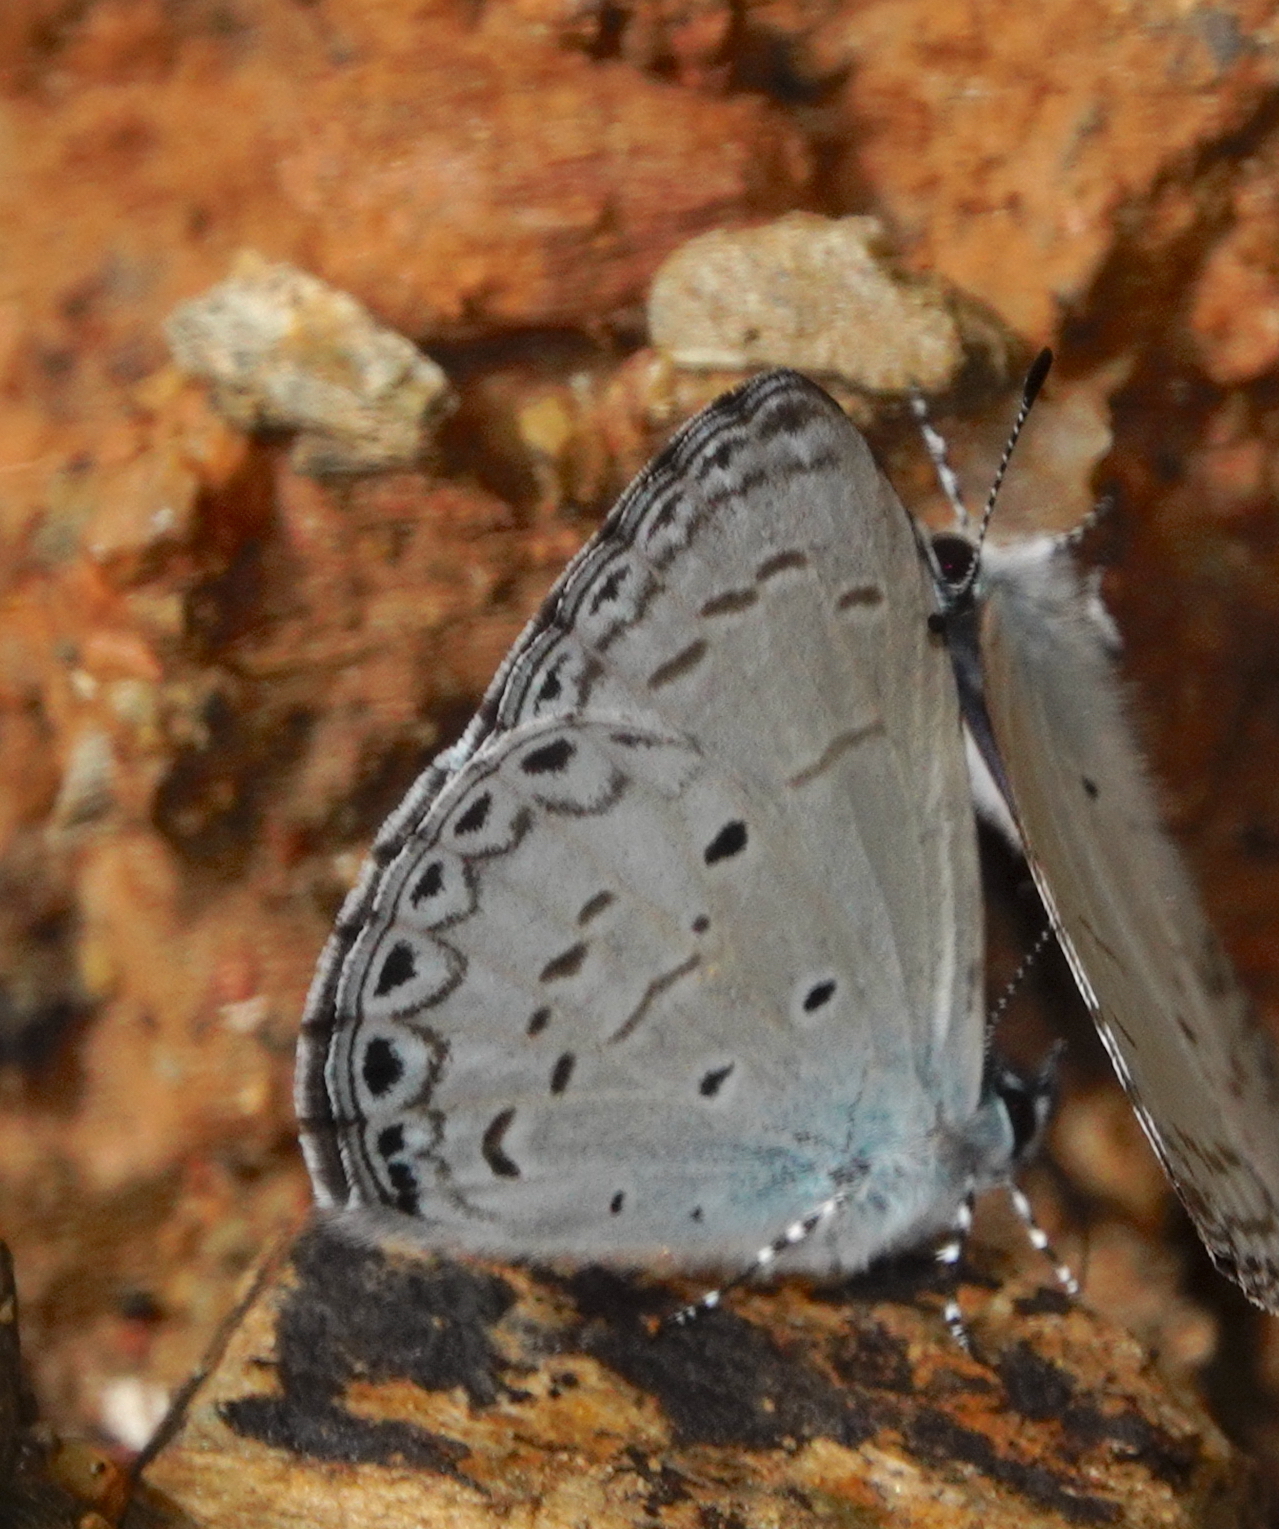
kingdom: Animalia
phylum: Arthropoda
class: Insecta
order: Lepidoptera
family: Lycaenidae
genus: Udara
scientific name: Udara
